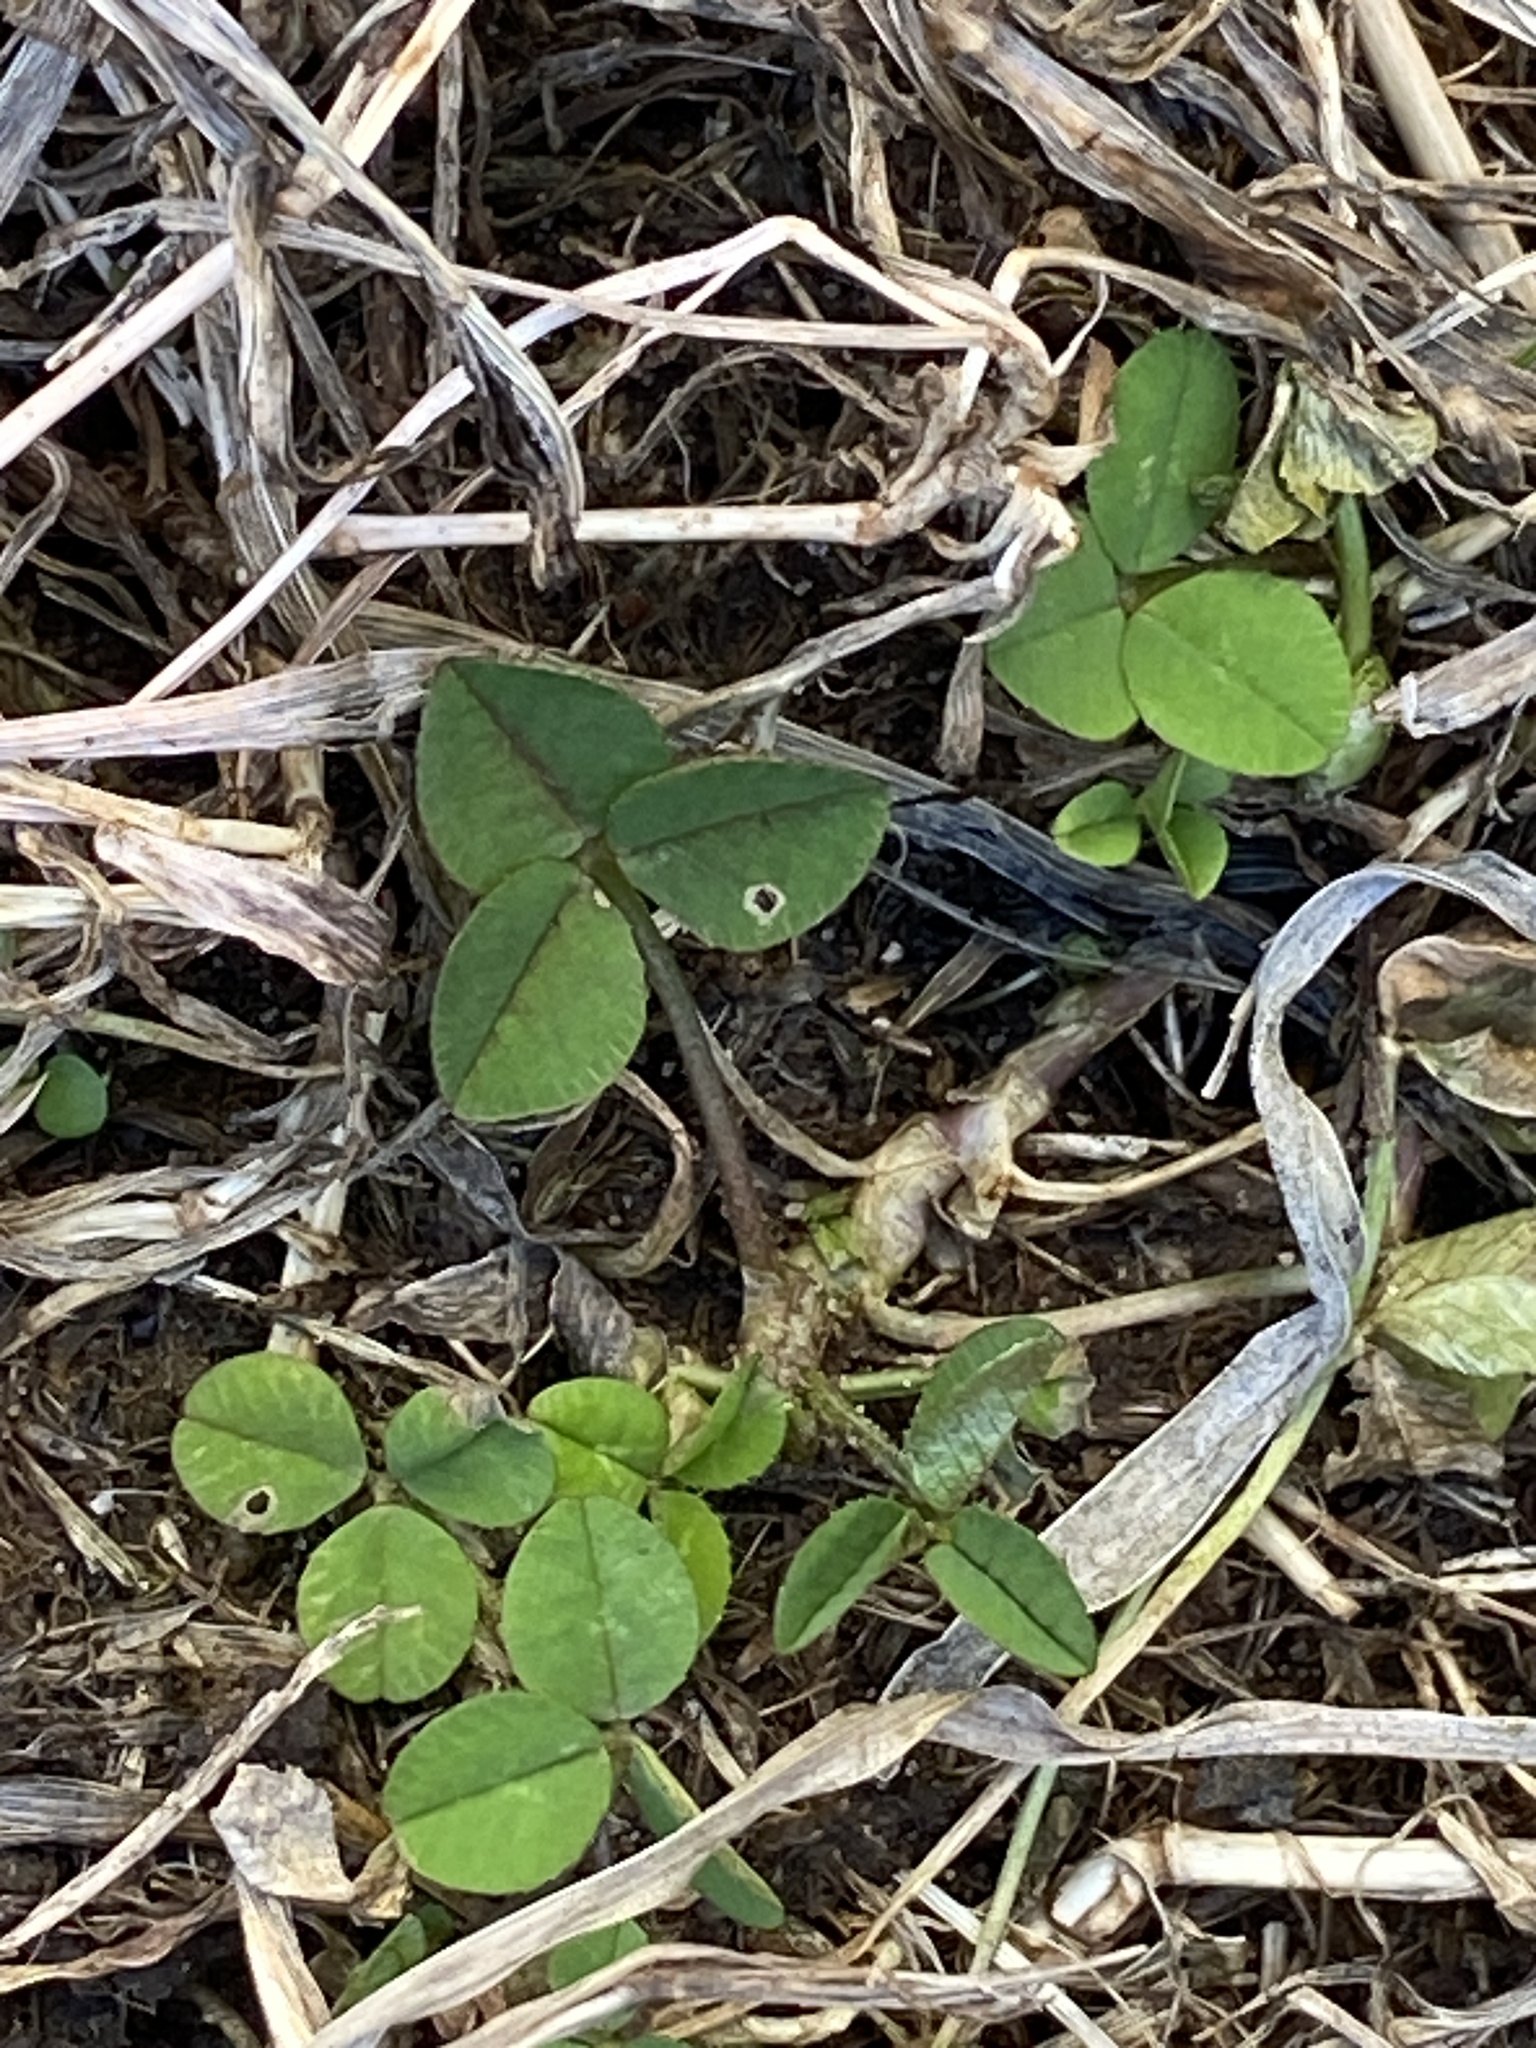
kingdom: Plantae
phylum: Tracheophyta
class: Magnoliopsida
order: Fabales
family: Fabaceae
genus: Trifolium
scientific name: Trifolium repens
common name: White clover
